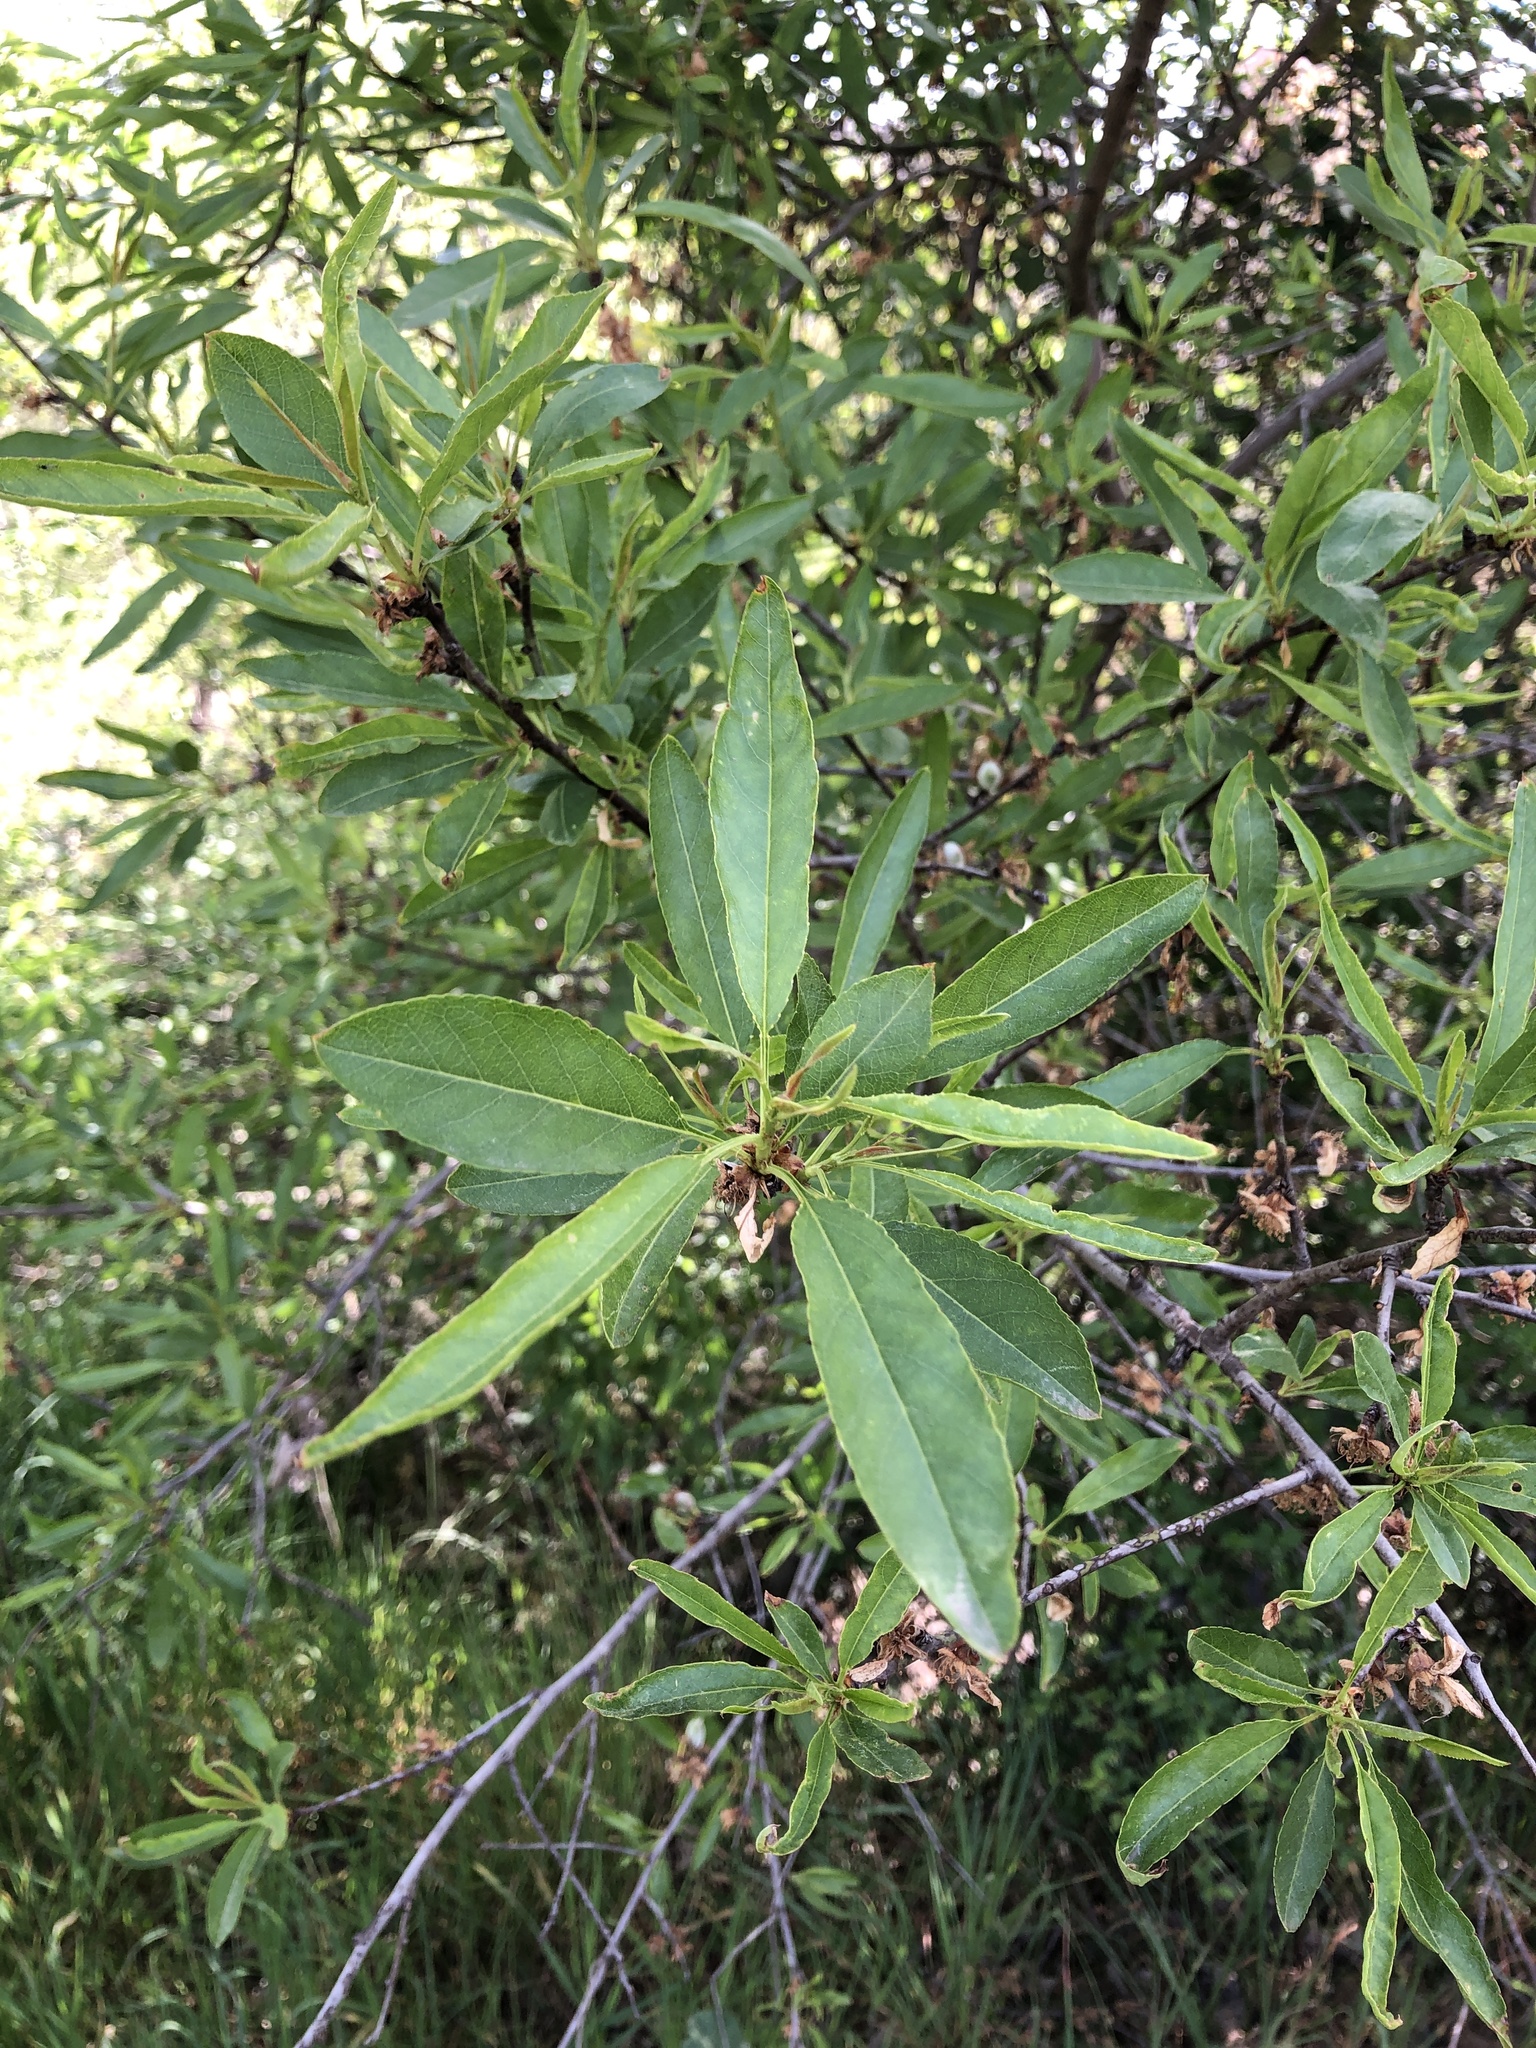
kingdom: Plantae
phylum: Tracheophyta
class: Magnoliopsida
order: Rosales
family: Rosaceae
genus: Prunus
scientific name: Prunus amygdalus
